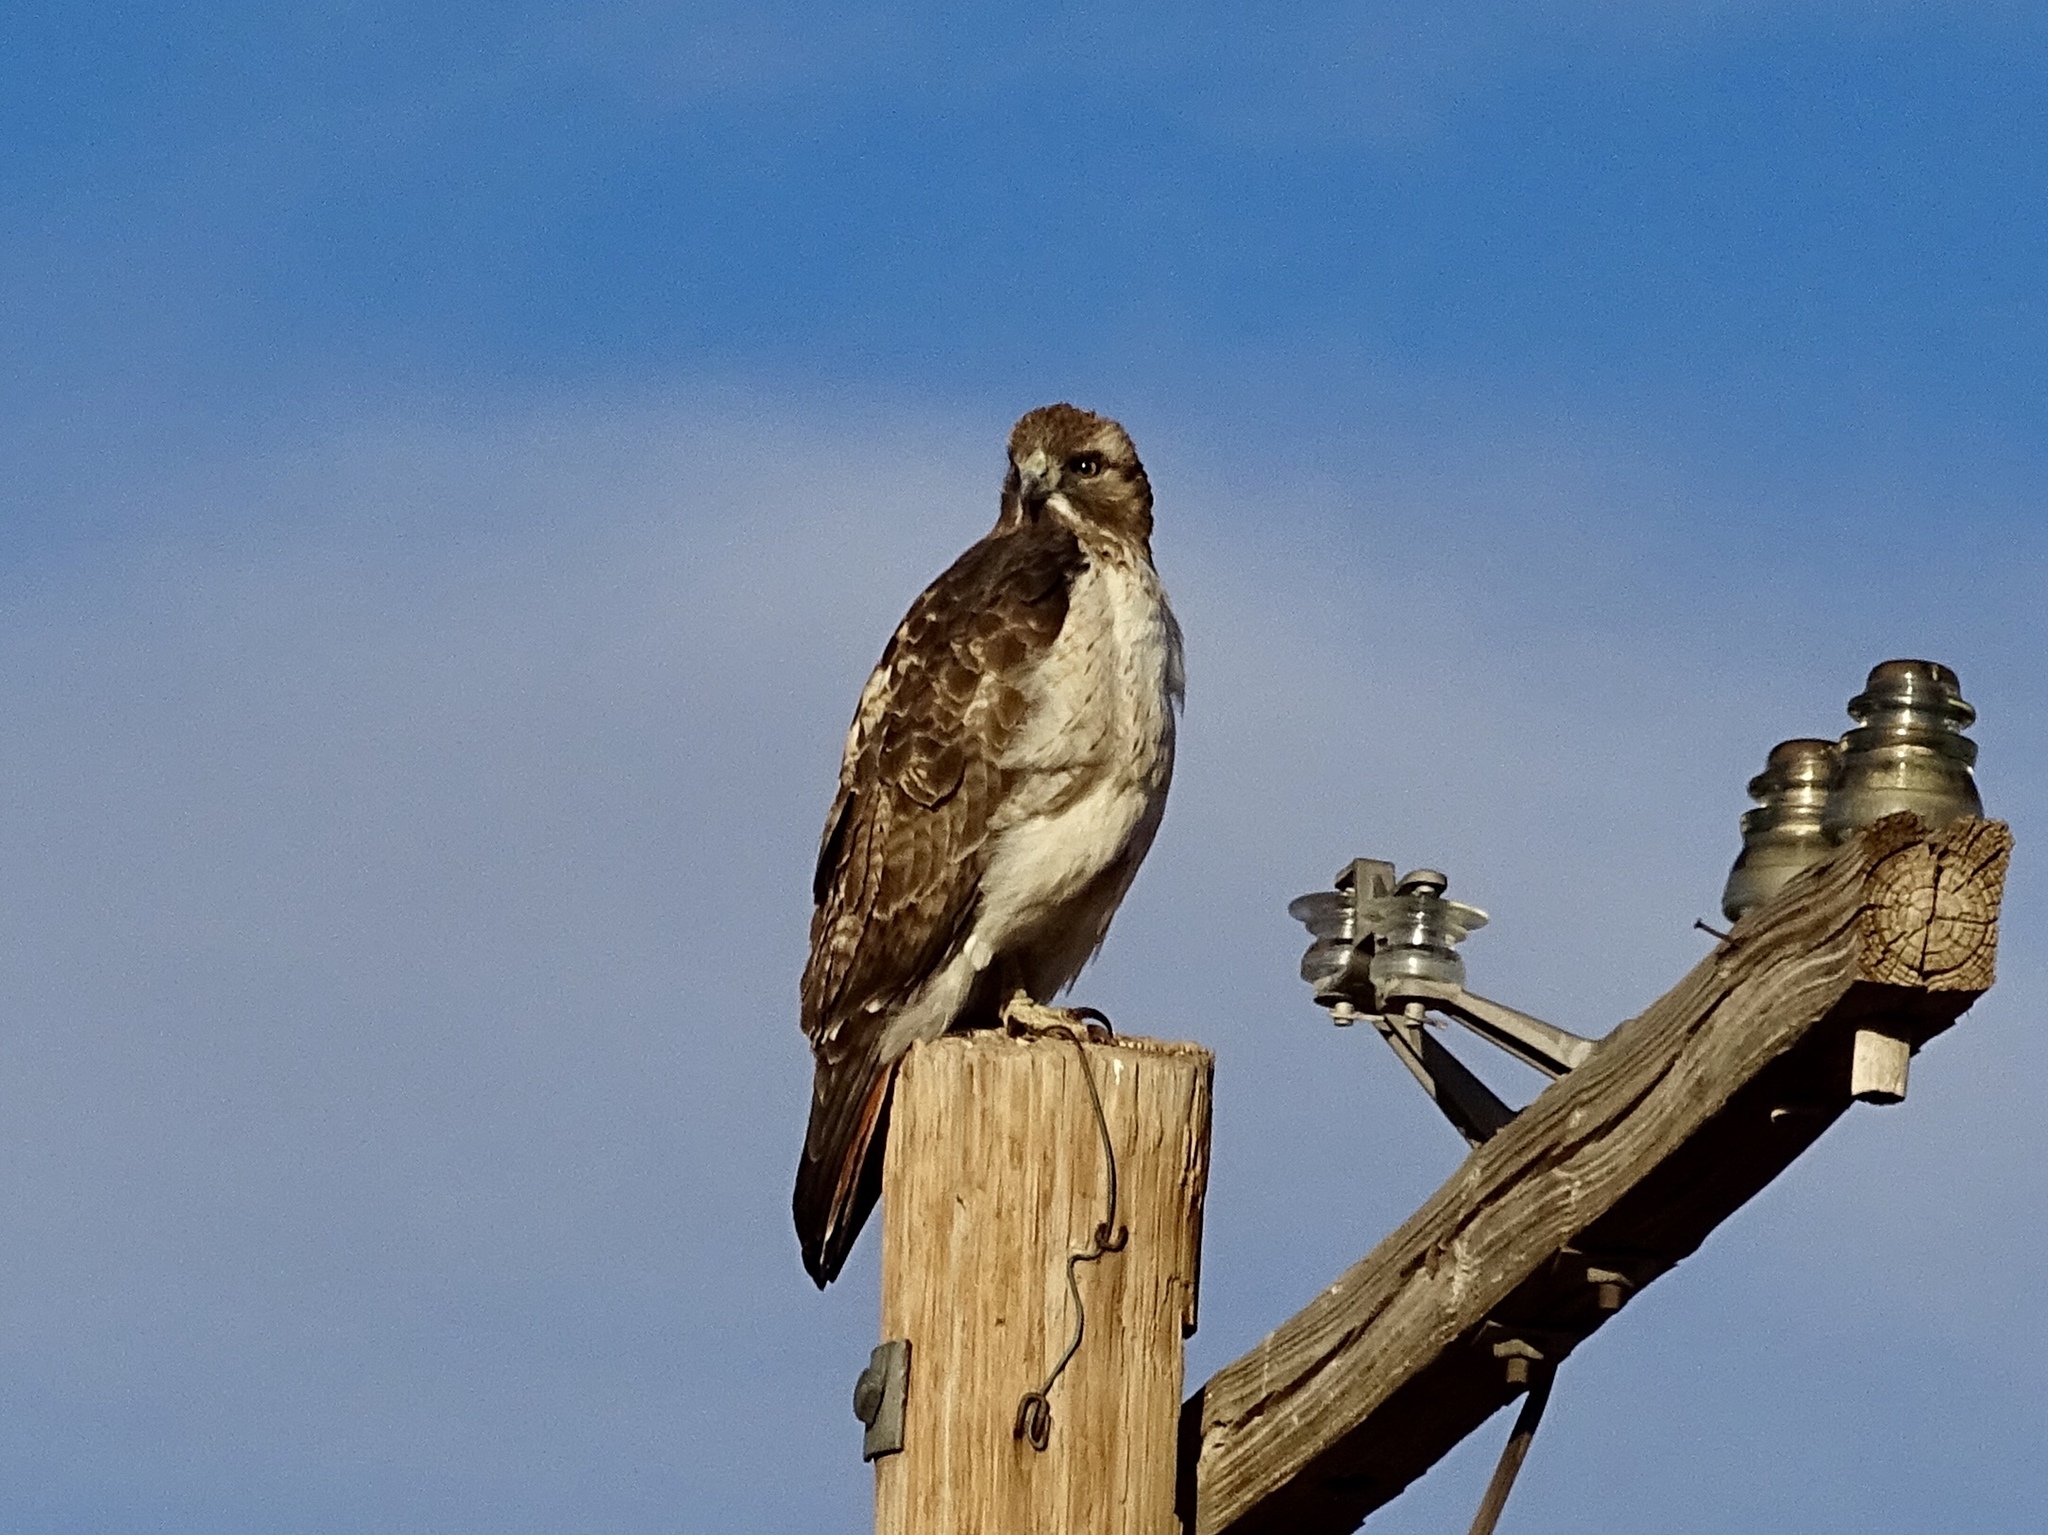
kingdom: Animalia
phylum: Chordata
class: Aves
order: Accipitriformes
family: Accipitridae
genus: Buteo
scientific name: Buteo jamaicensis
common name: Red-tailed hawk
